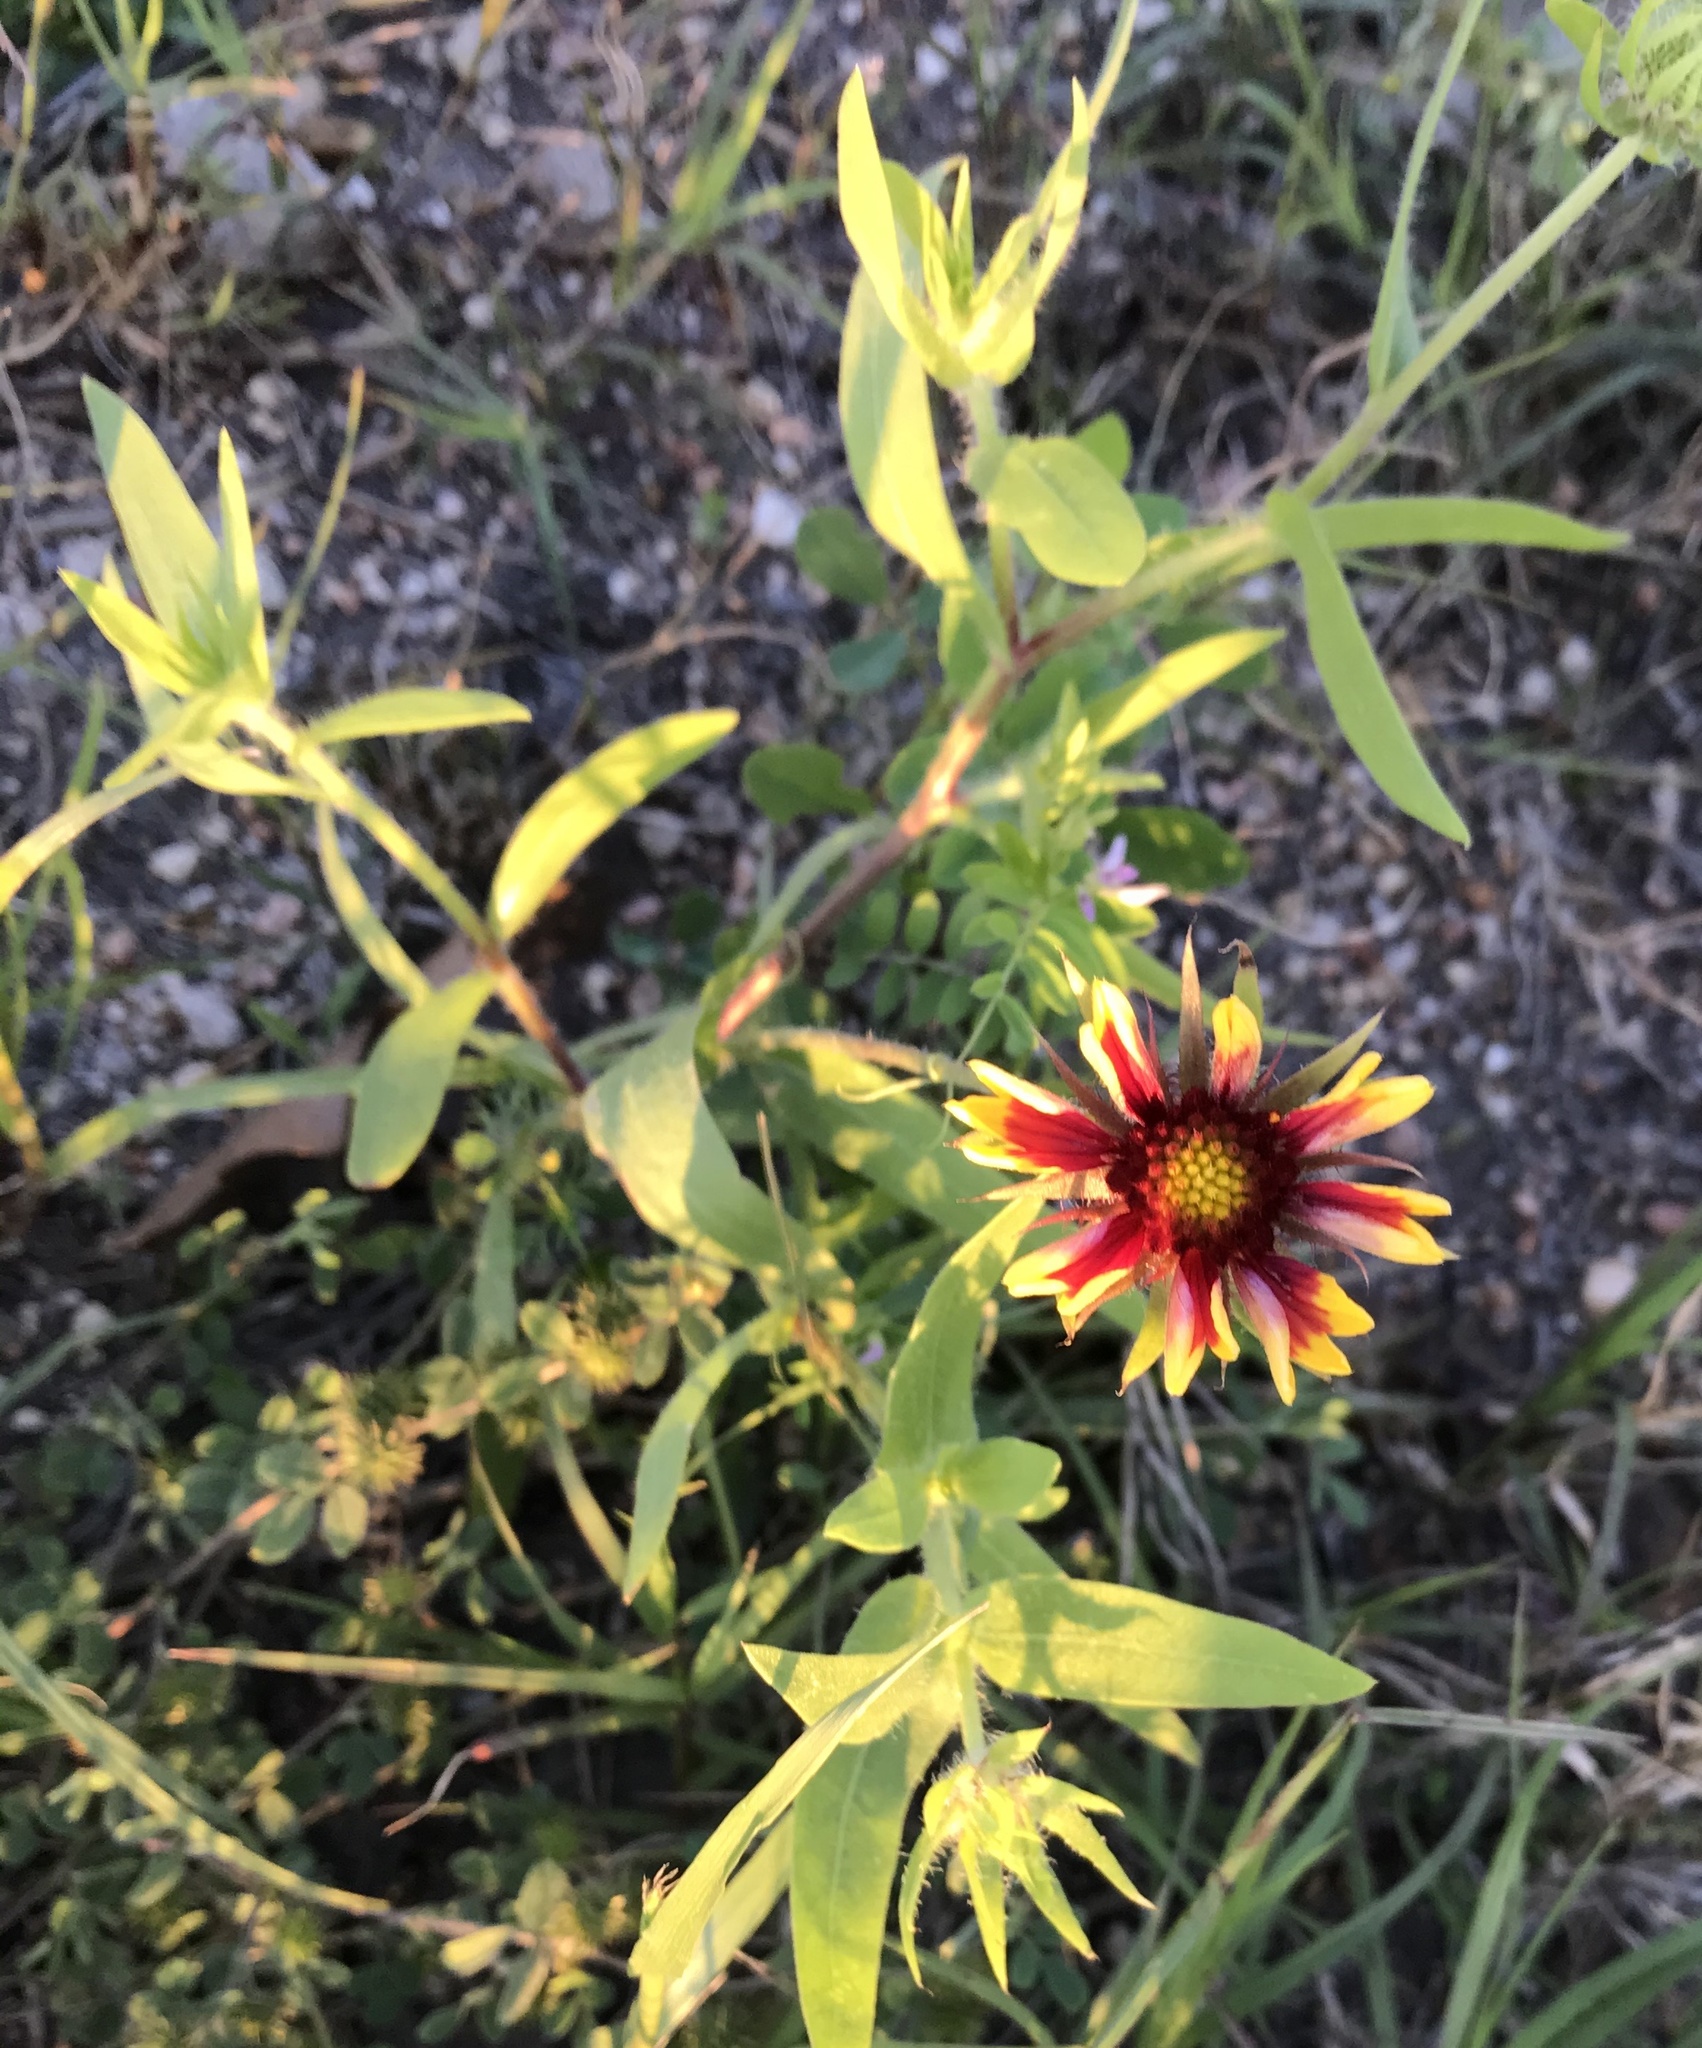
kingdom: Plantae
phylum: Tracheophyta
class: Magnoliopsida
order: Asterales
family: Asteraceae
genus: Gaillardia
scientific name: Gaillardia pulchella
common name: Firewheel
